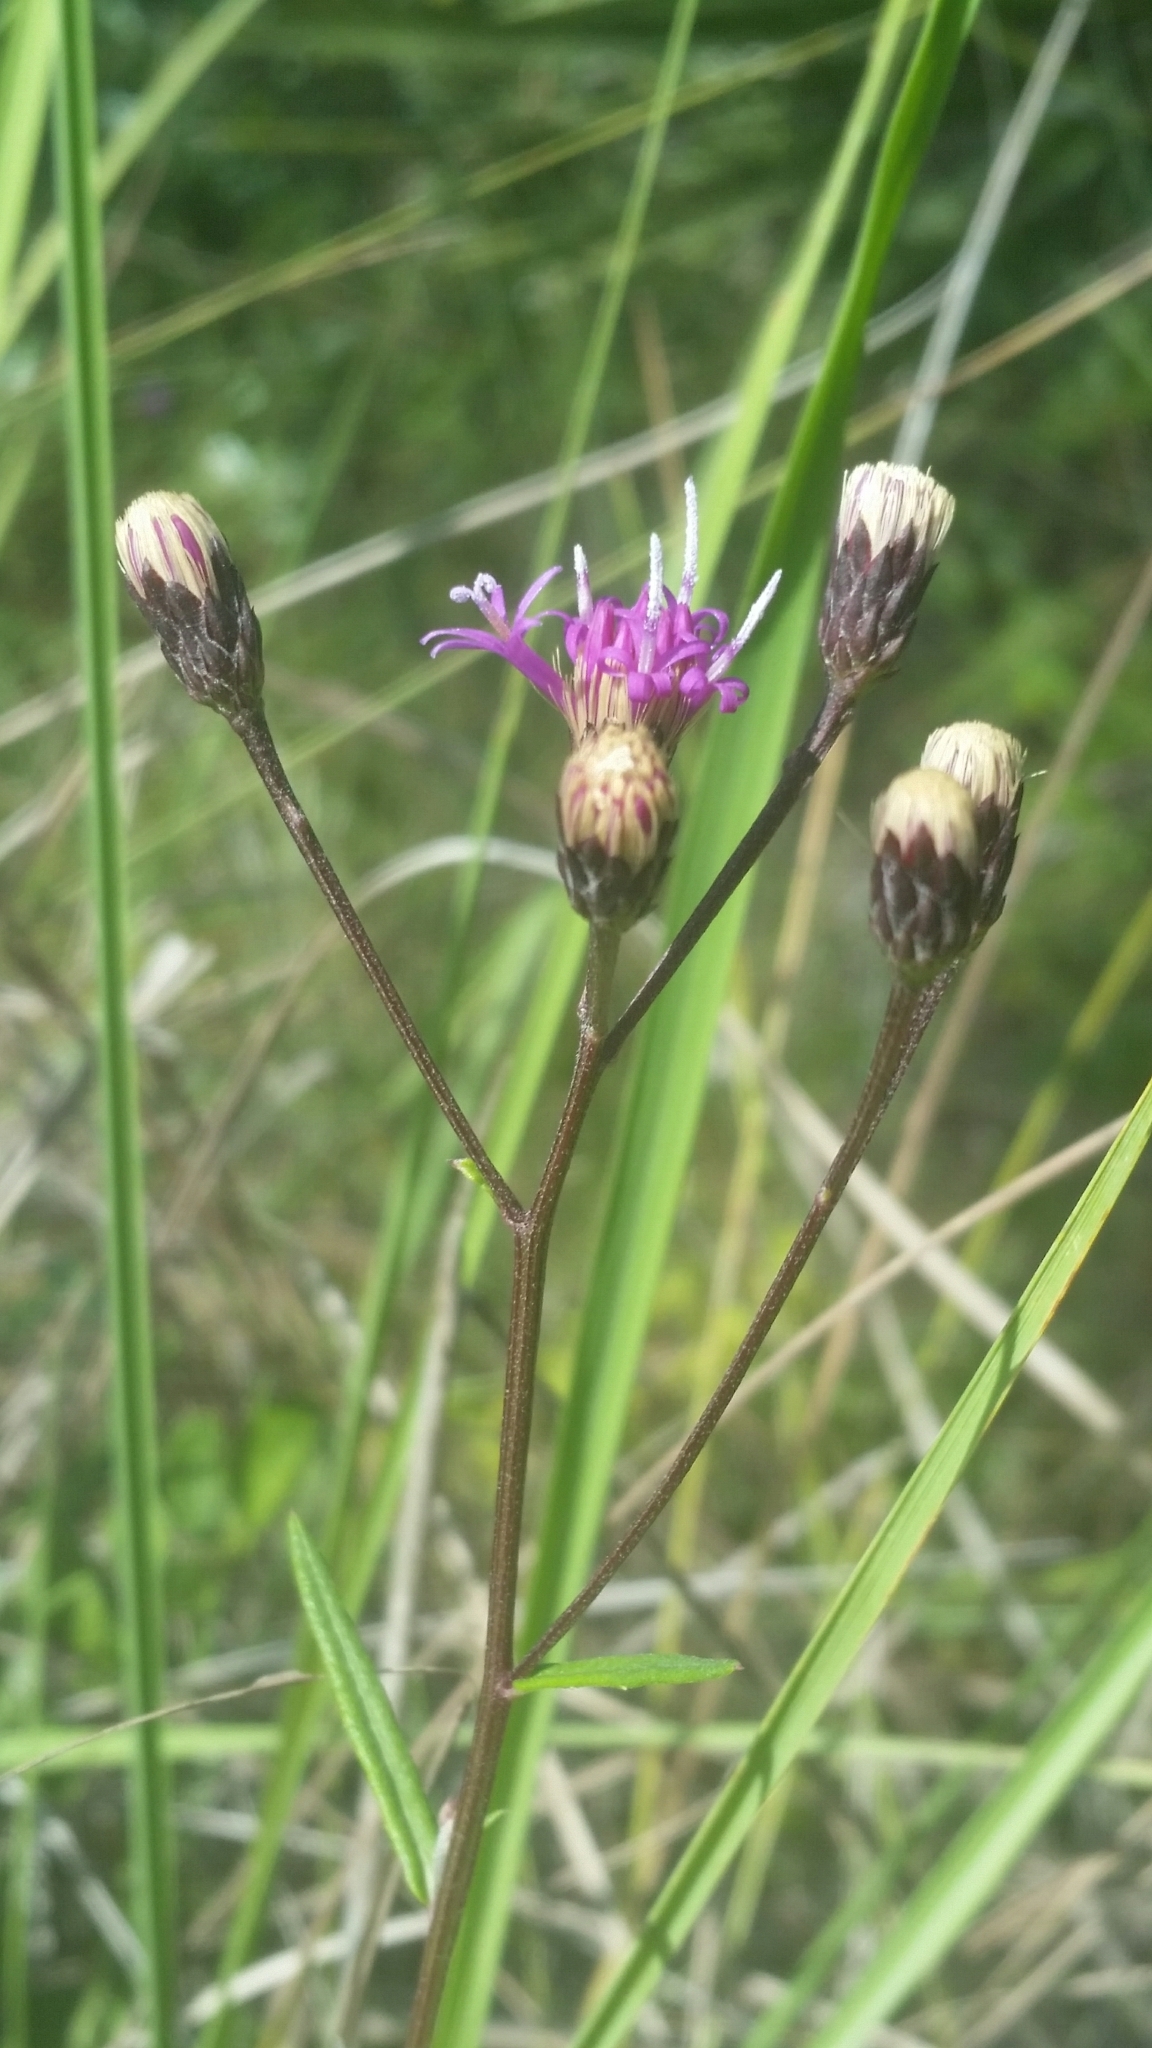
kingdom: Plantae
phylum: Tracheophyta
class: Magnoliopsida
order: Asterales
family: Asteraceae
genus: Vernonia
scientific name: Vernonia blodgettii
